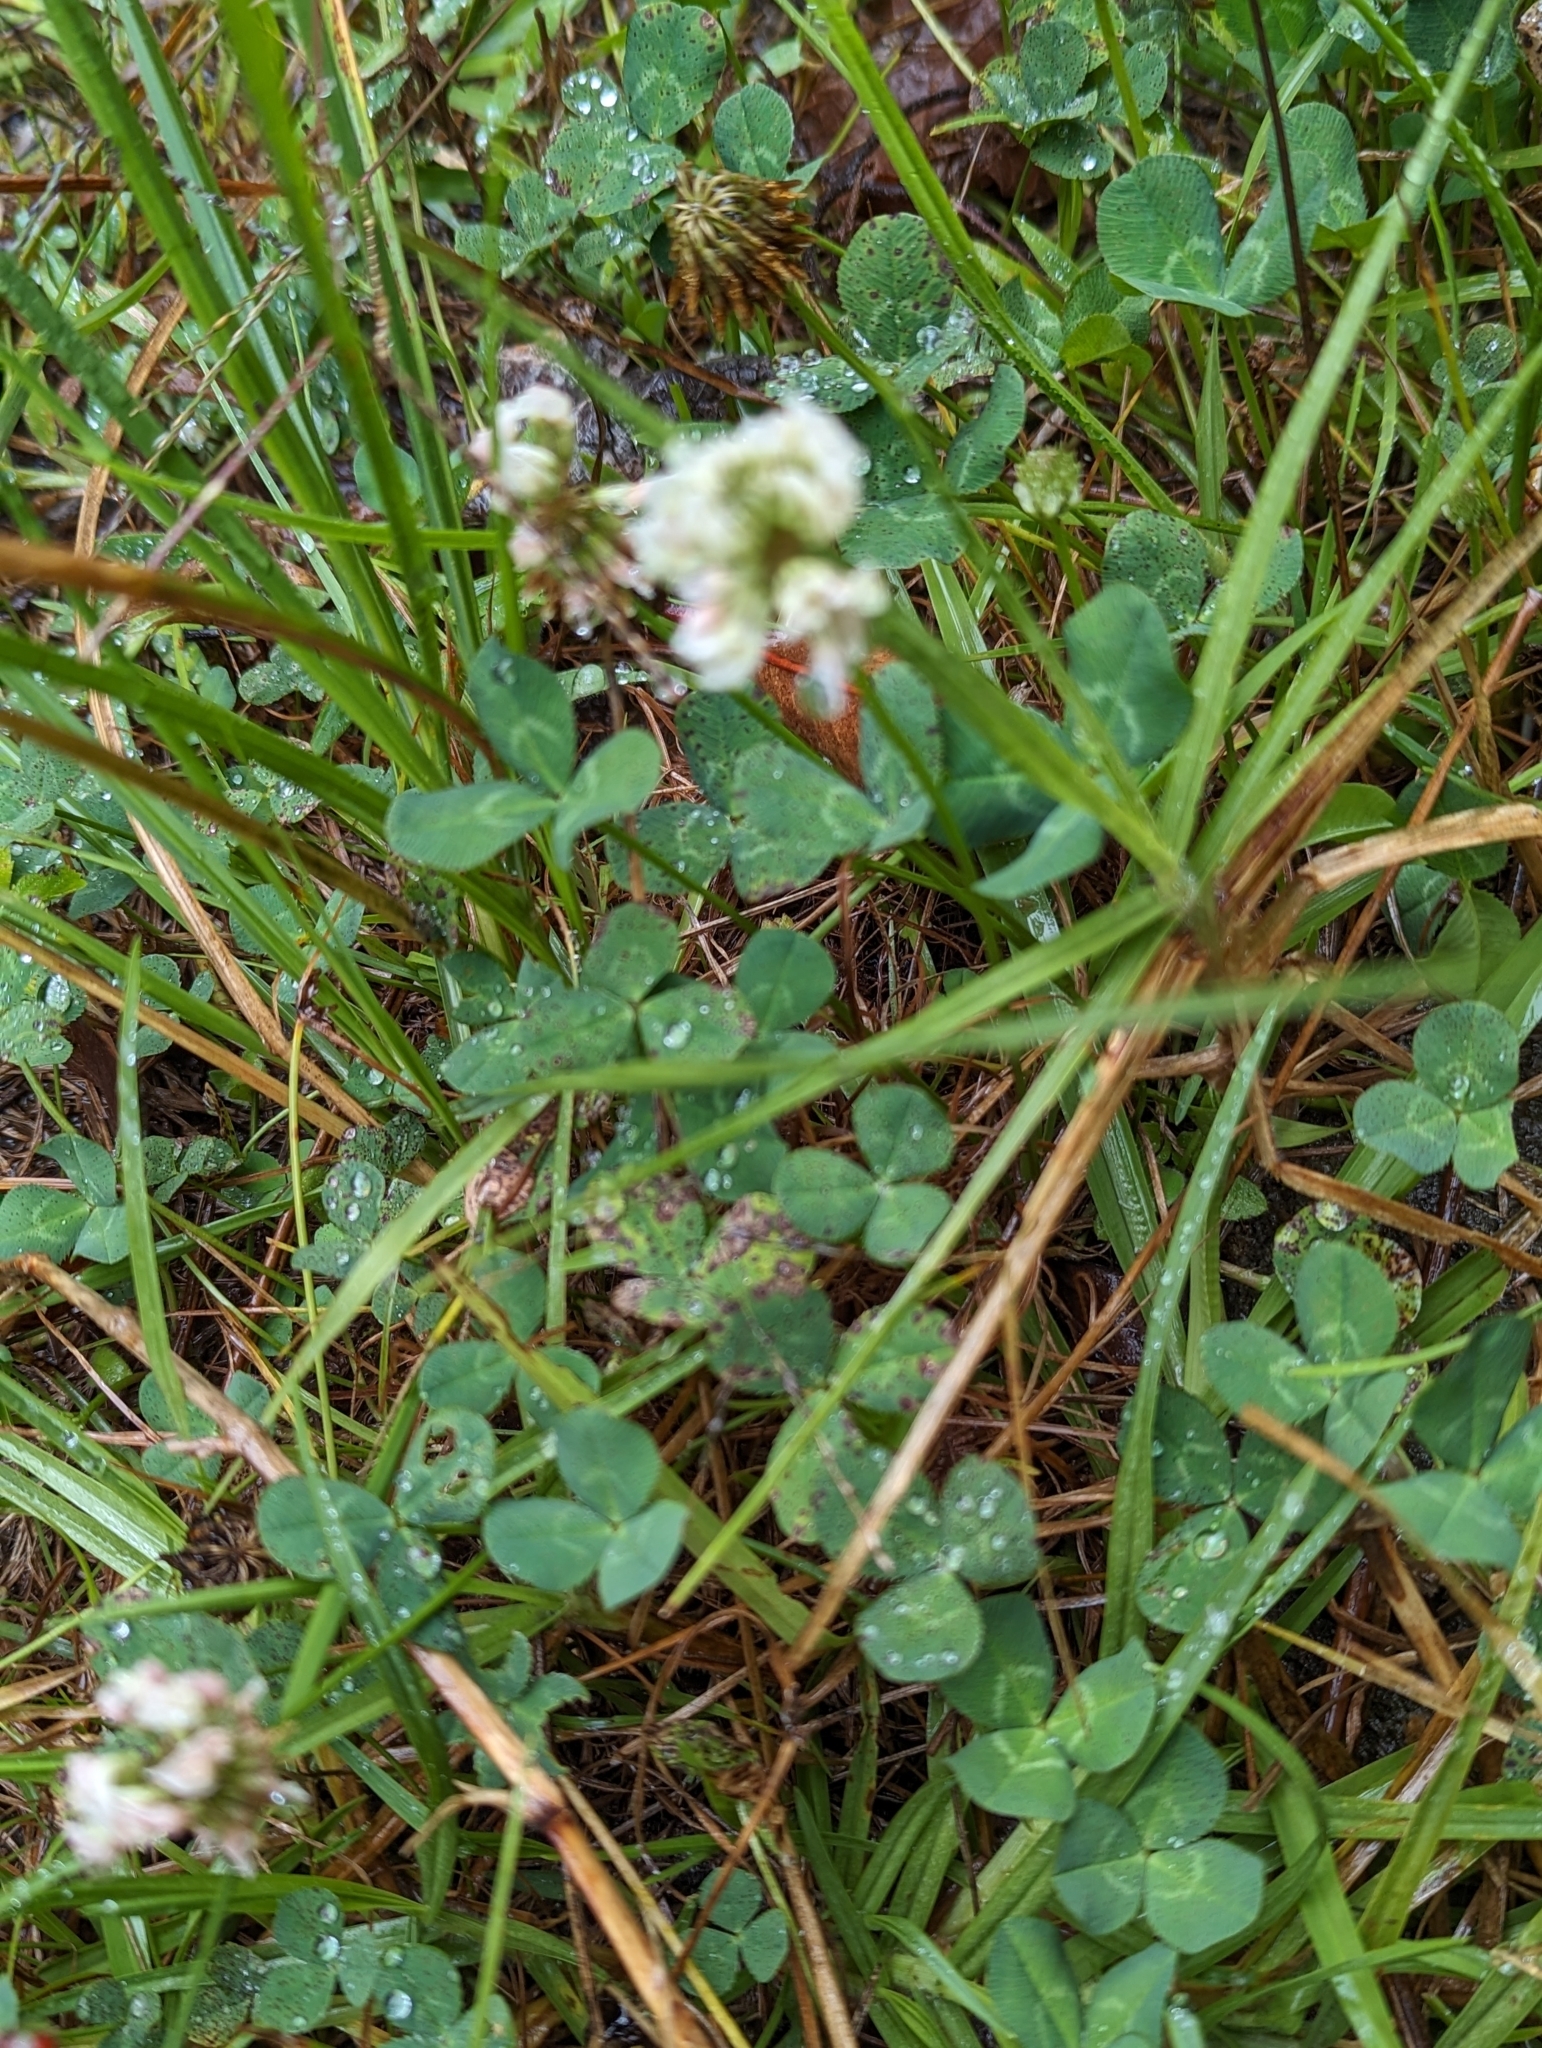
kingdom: Plantae
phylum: Tracheophyta
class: Magnoliopsida
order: Fabales
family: Fabaceae
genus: Trifolium
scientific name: Trifolium repens
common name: White clover
